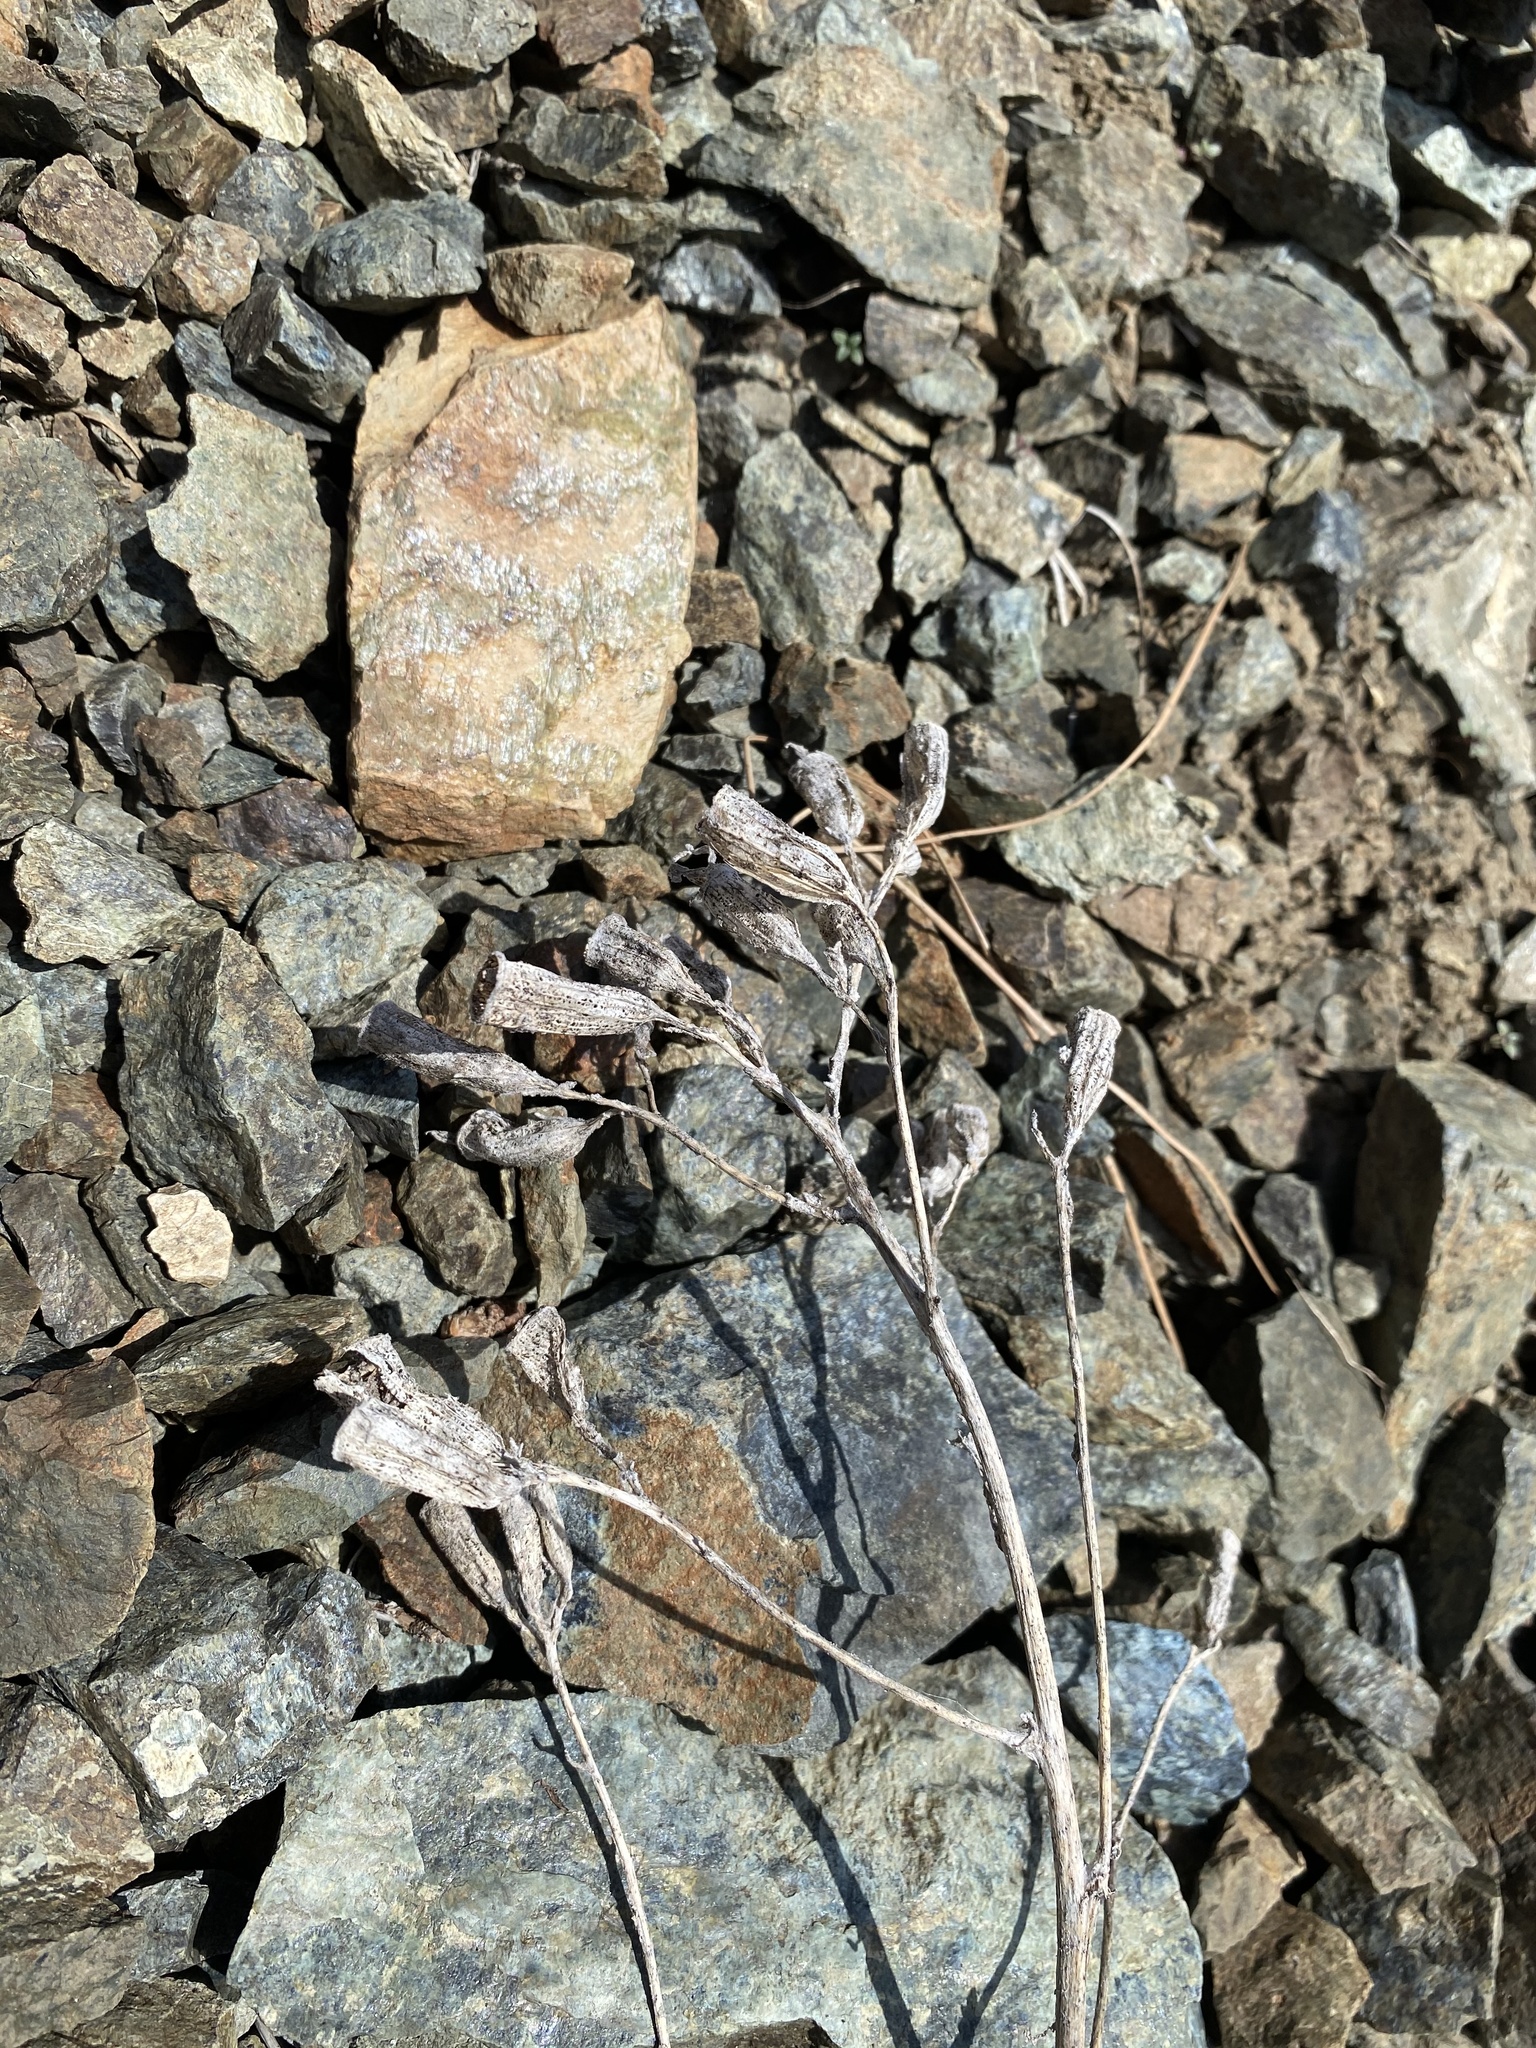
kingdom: Plantae
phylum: Tracheophyta
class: Magnoliopsida
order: Cornales
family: Loasaceae
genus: Mentzelia
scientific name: Mentzelia laevicaulis
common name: Smooth-stem blazingstar
